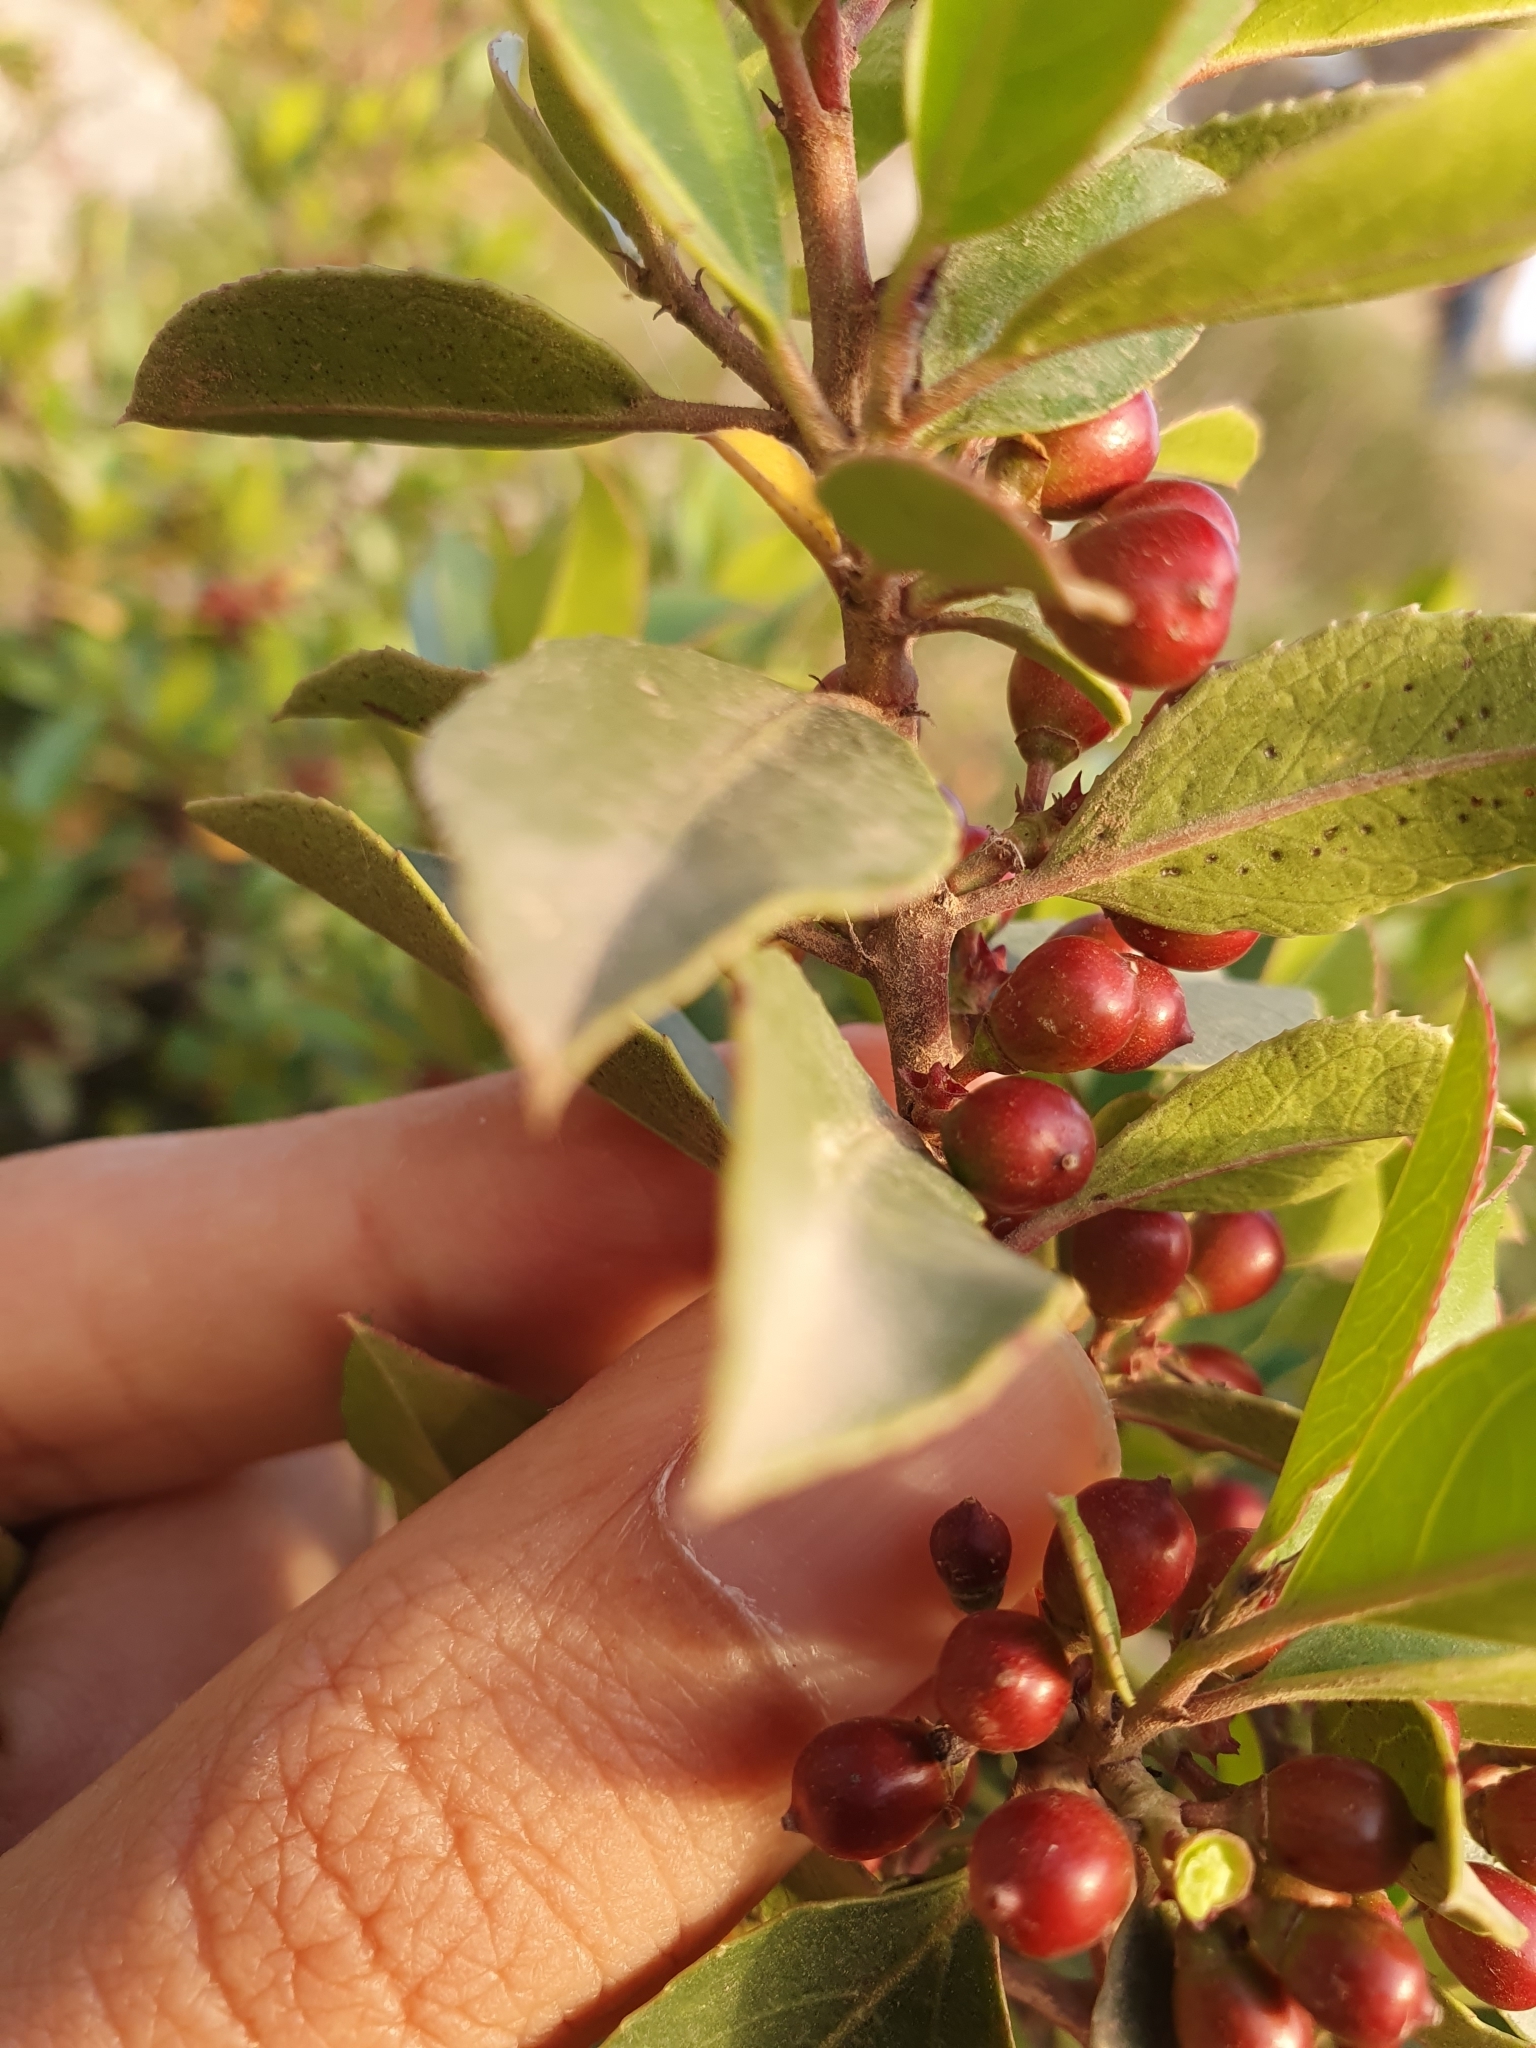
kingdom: Plantae
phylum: Tracheophyta
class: Magnoliopsida
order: Rosales
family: Rhamnaceae
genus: Rhamnus
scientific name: Rhamnus alaternus
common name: Mediterranean buckthorn
